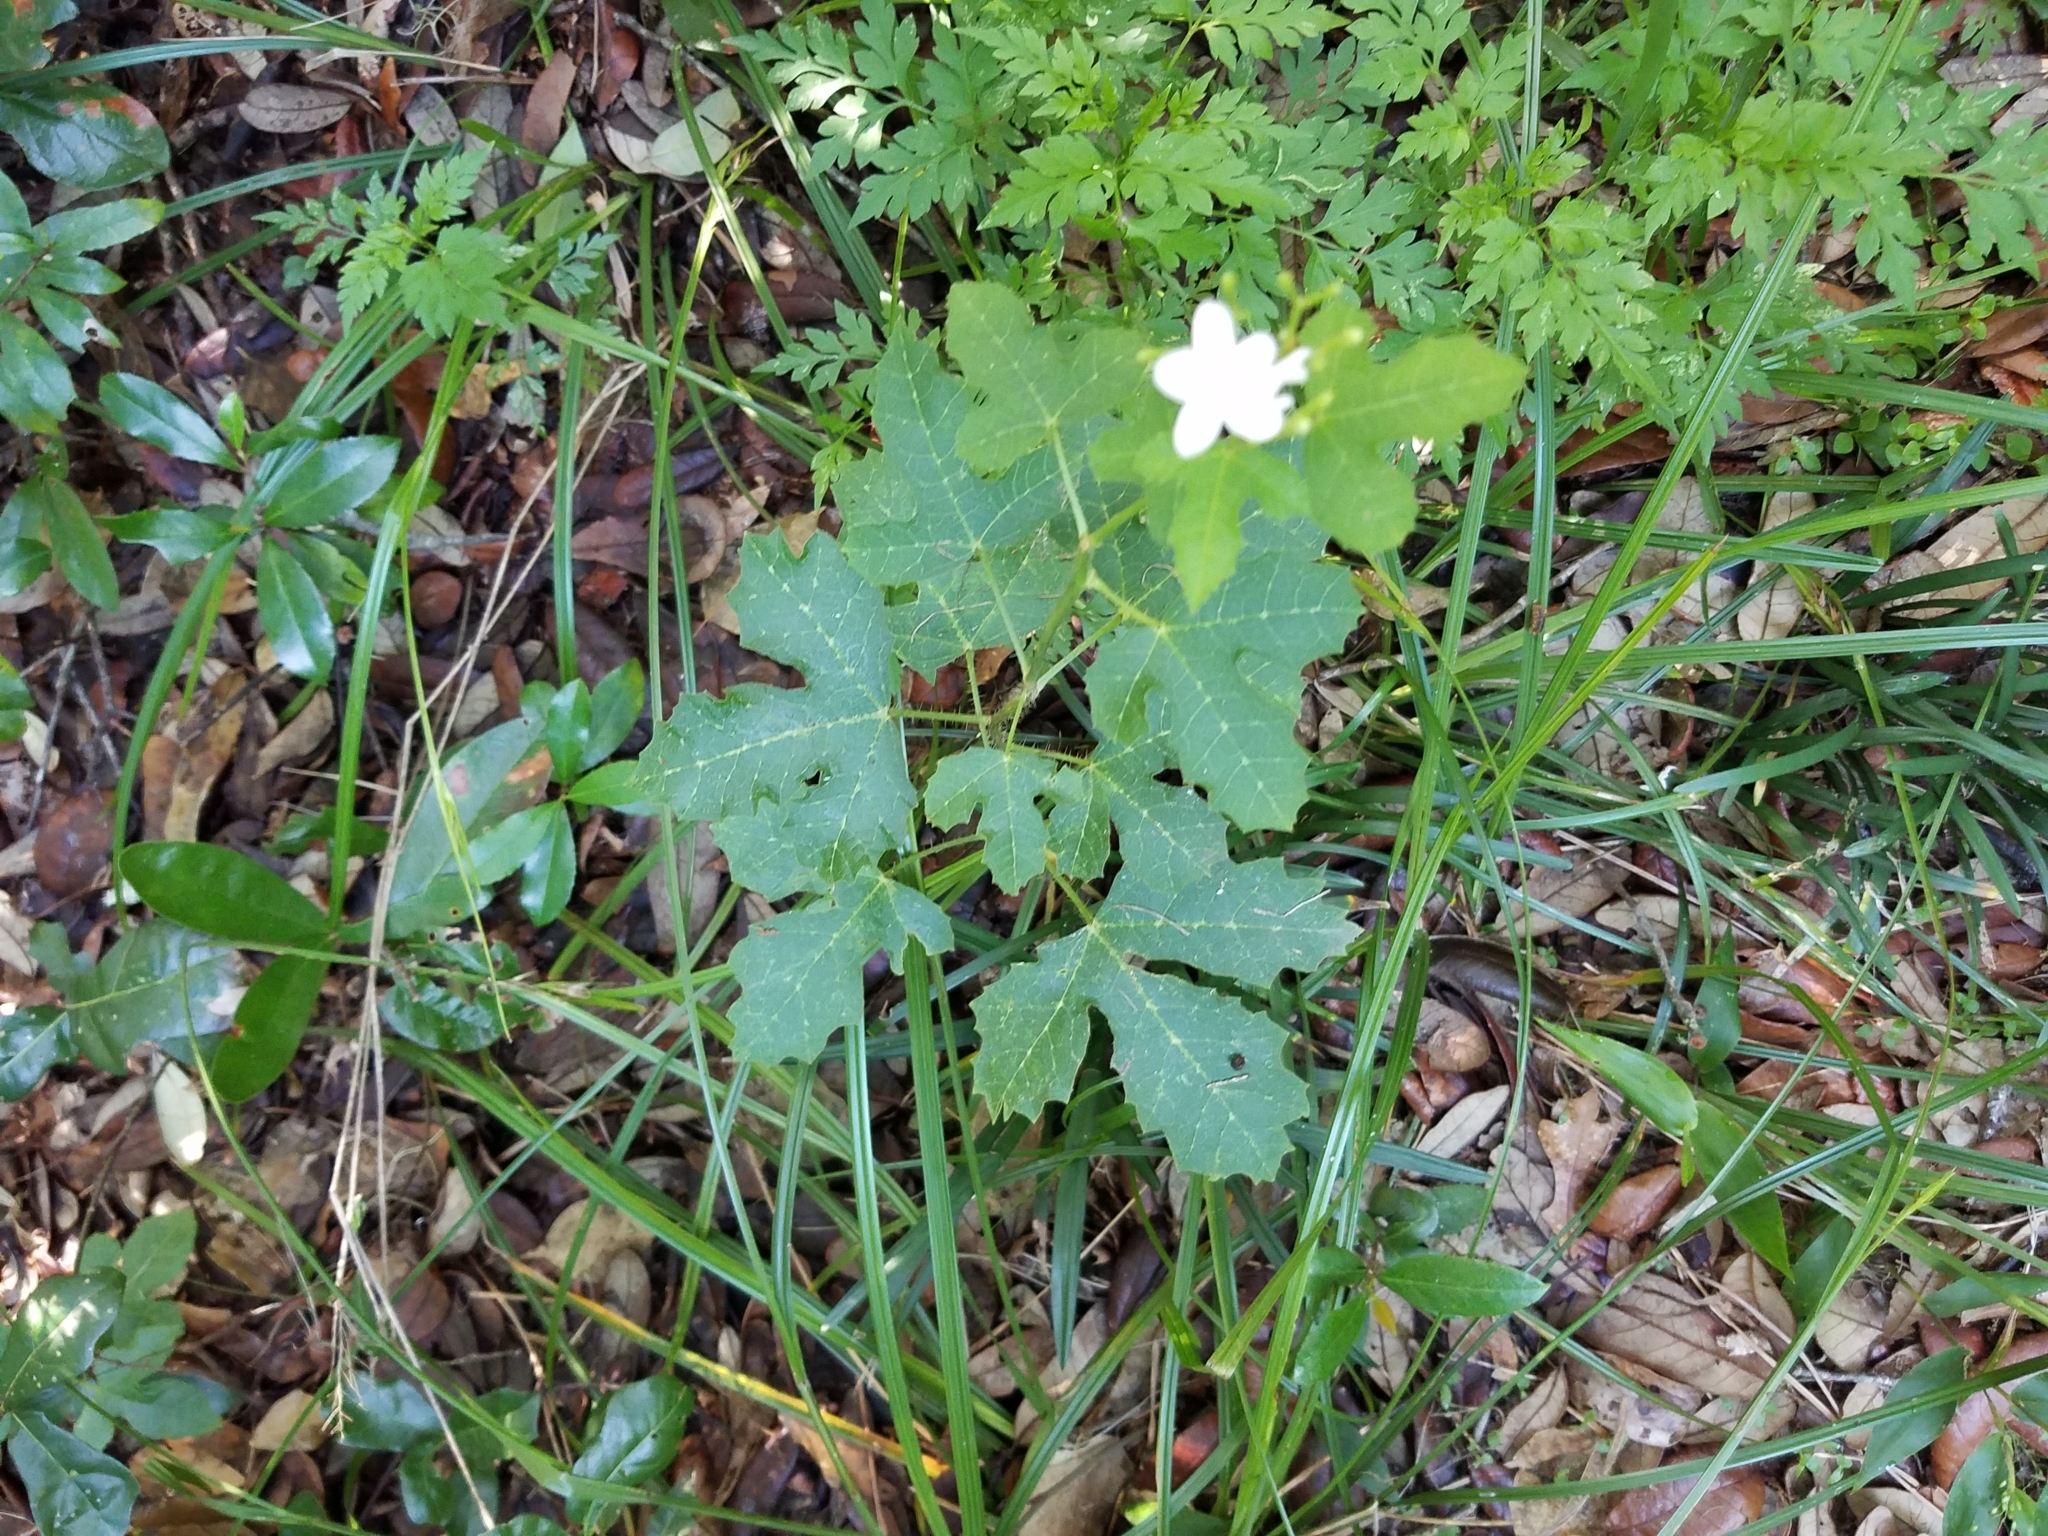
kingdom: Plantae
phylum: Tracheophyta
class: Magnoliopsida
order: Malpighiales
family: Euphorbiaceae
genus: Cnidoscolus
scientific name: Cnidoscolus stimulosus
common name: Bull-nettle
